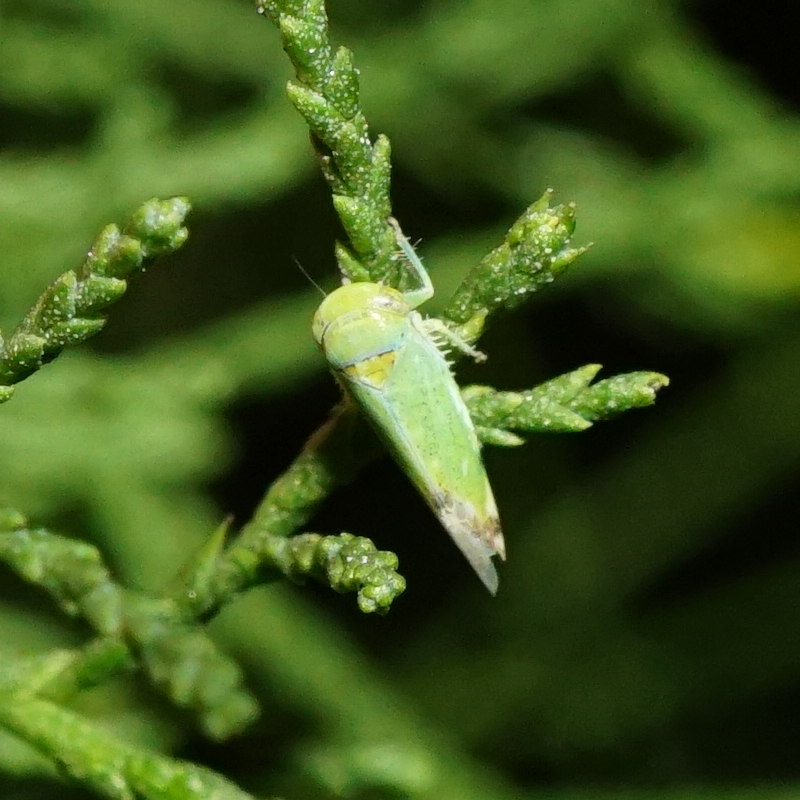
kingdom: Animalia
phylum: Arthropoda
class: Insecta
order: Hemiptera
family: Cicadellidae
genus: Opsius
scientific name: Opsius stactogalus
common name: Leafhopper
